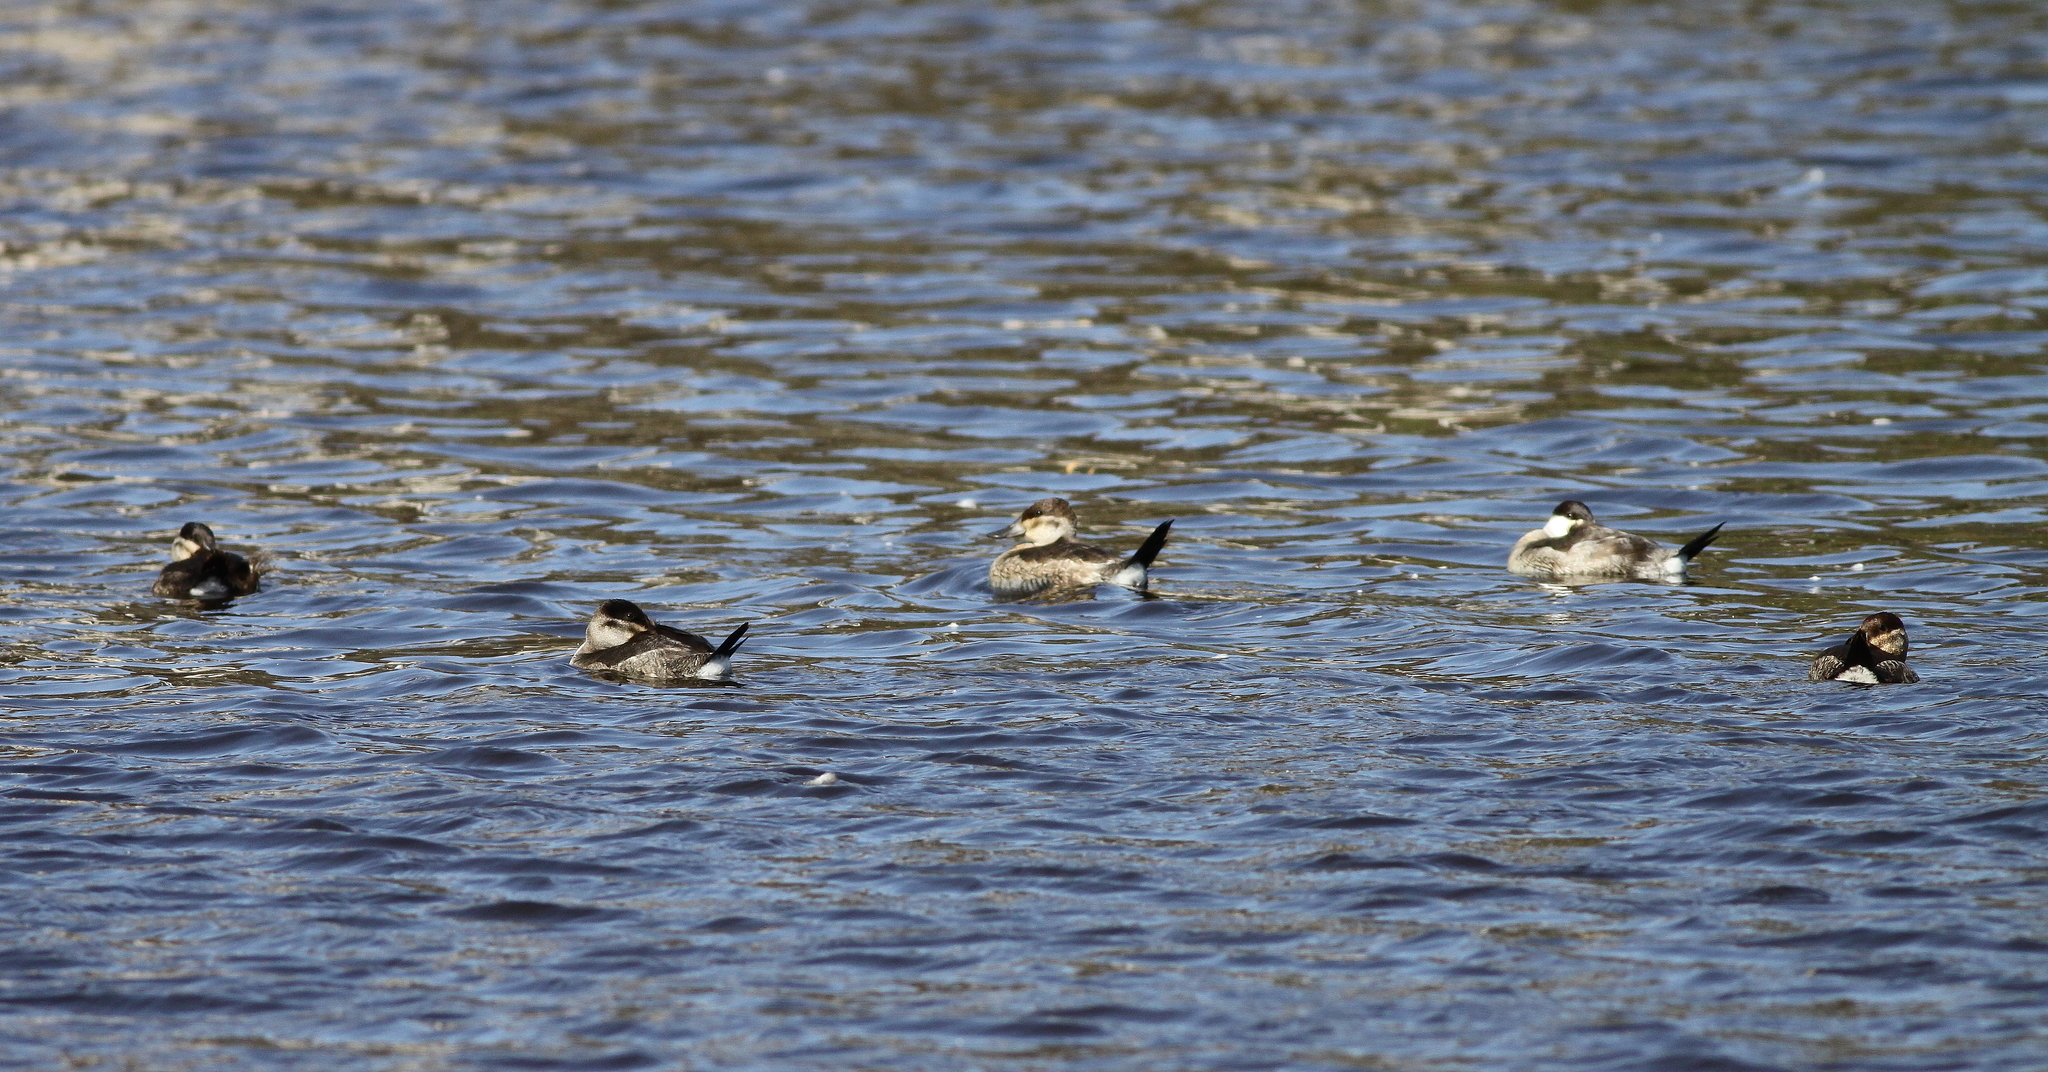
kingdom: Animalia
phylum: Chordata
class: Aves
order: Anseriformes
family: Anatidae
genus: Oxyura
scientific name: Oxyura jamaicensis
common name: Ruddy duck
